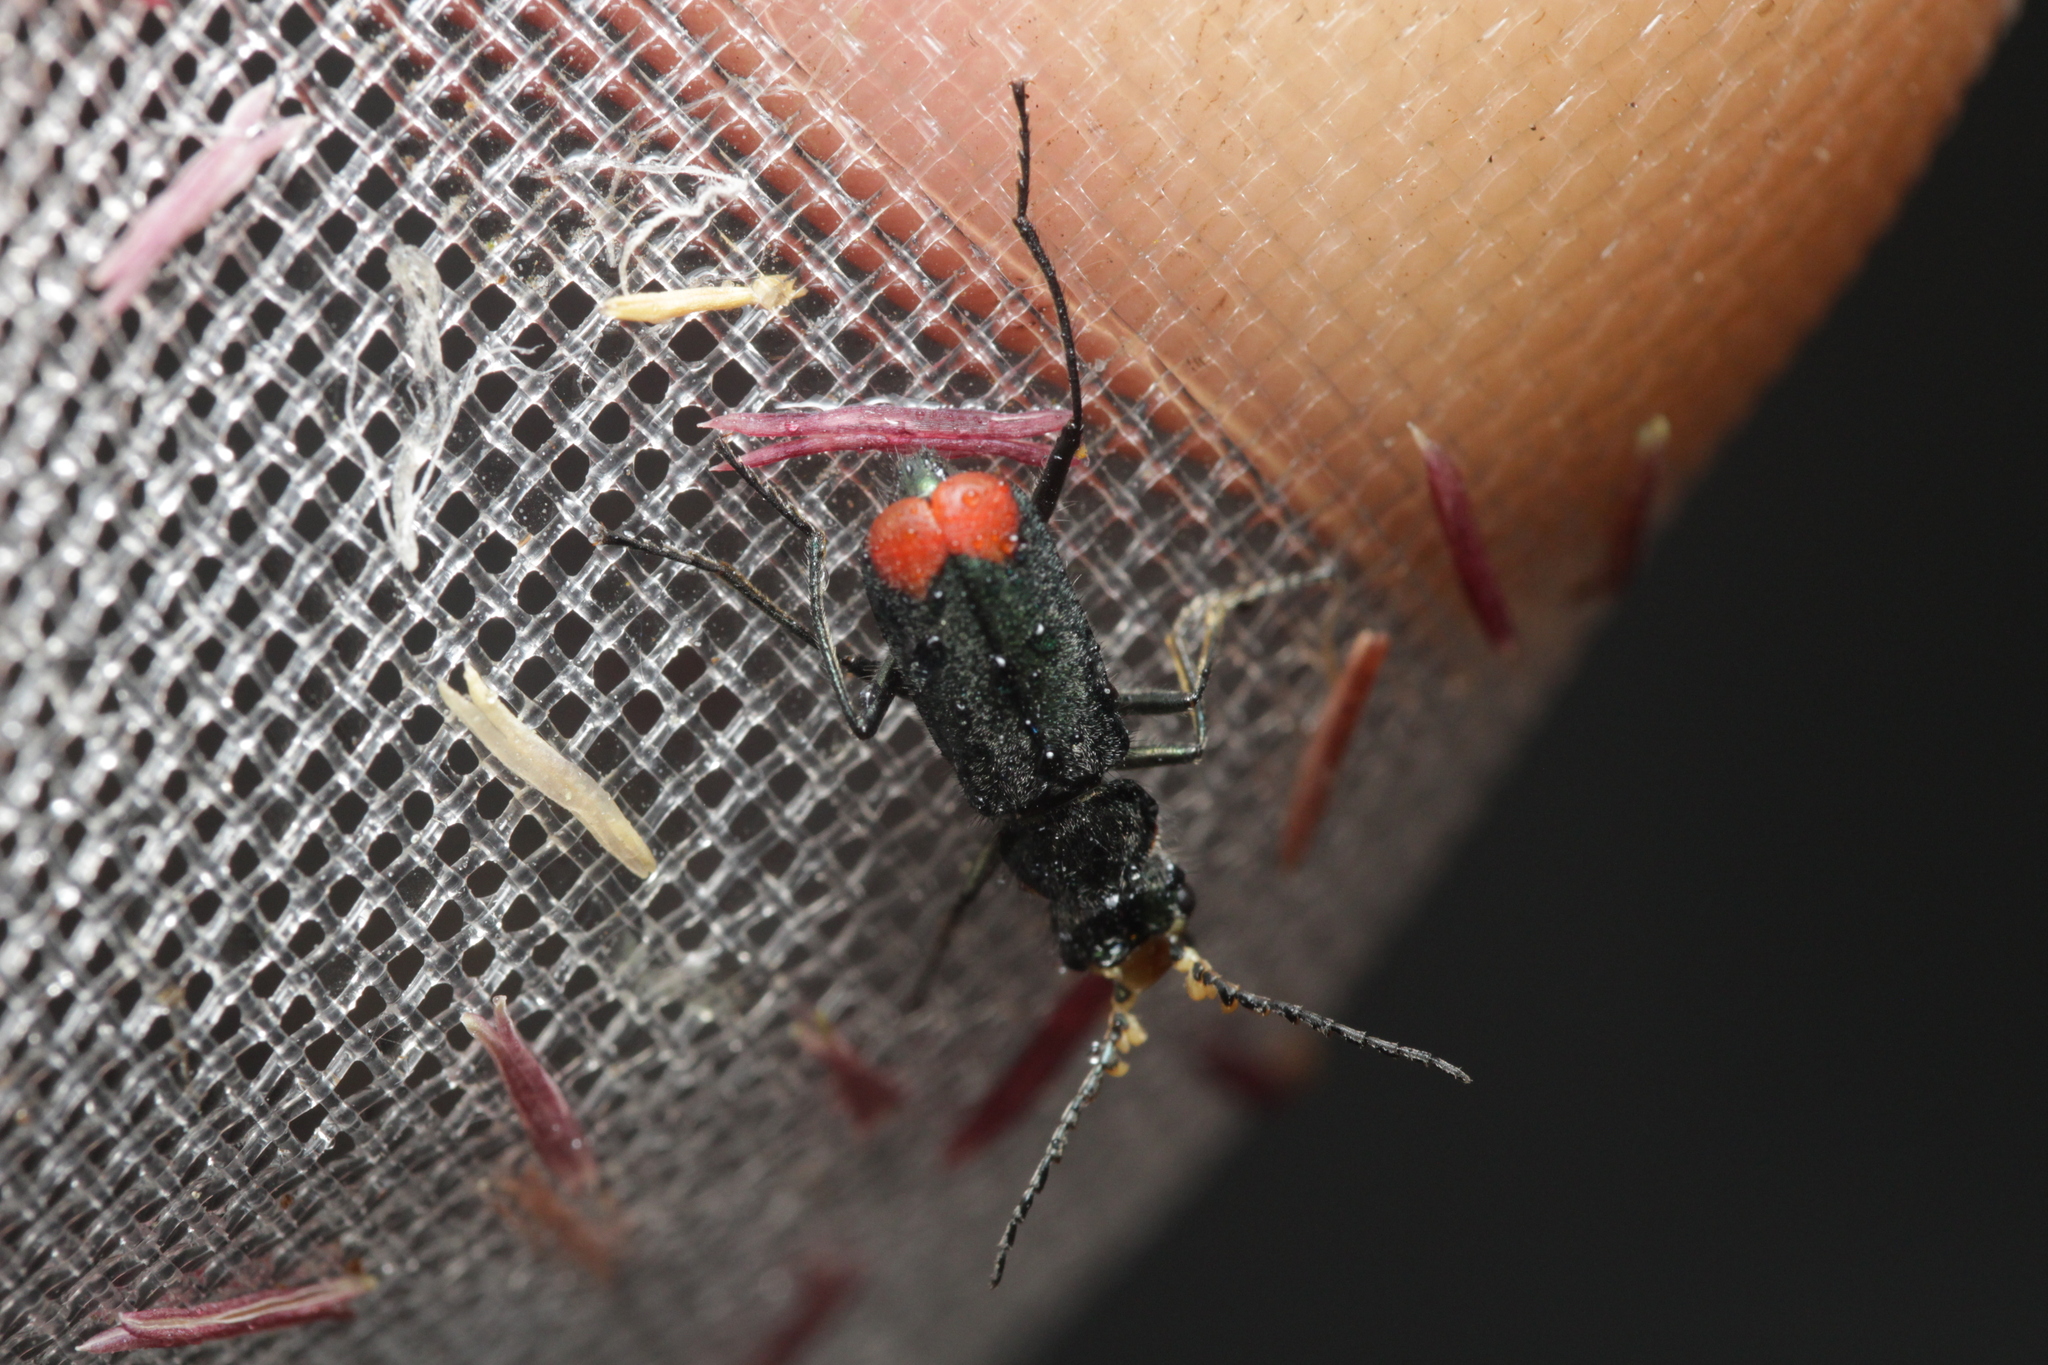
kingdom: Animalia
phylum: Arthropoda
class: Insecta
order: Coleoptera
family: Melyridae
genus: Malachius
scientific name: Malachius bipustulatus
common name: Malachite beetle
